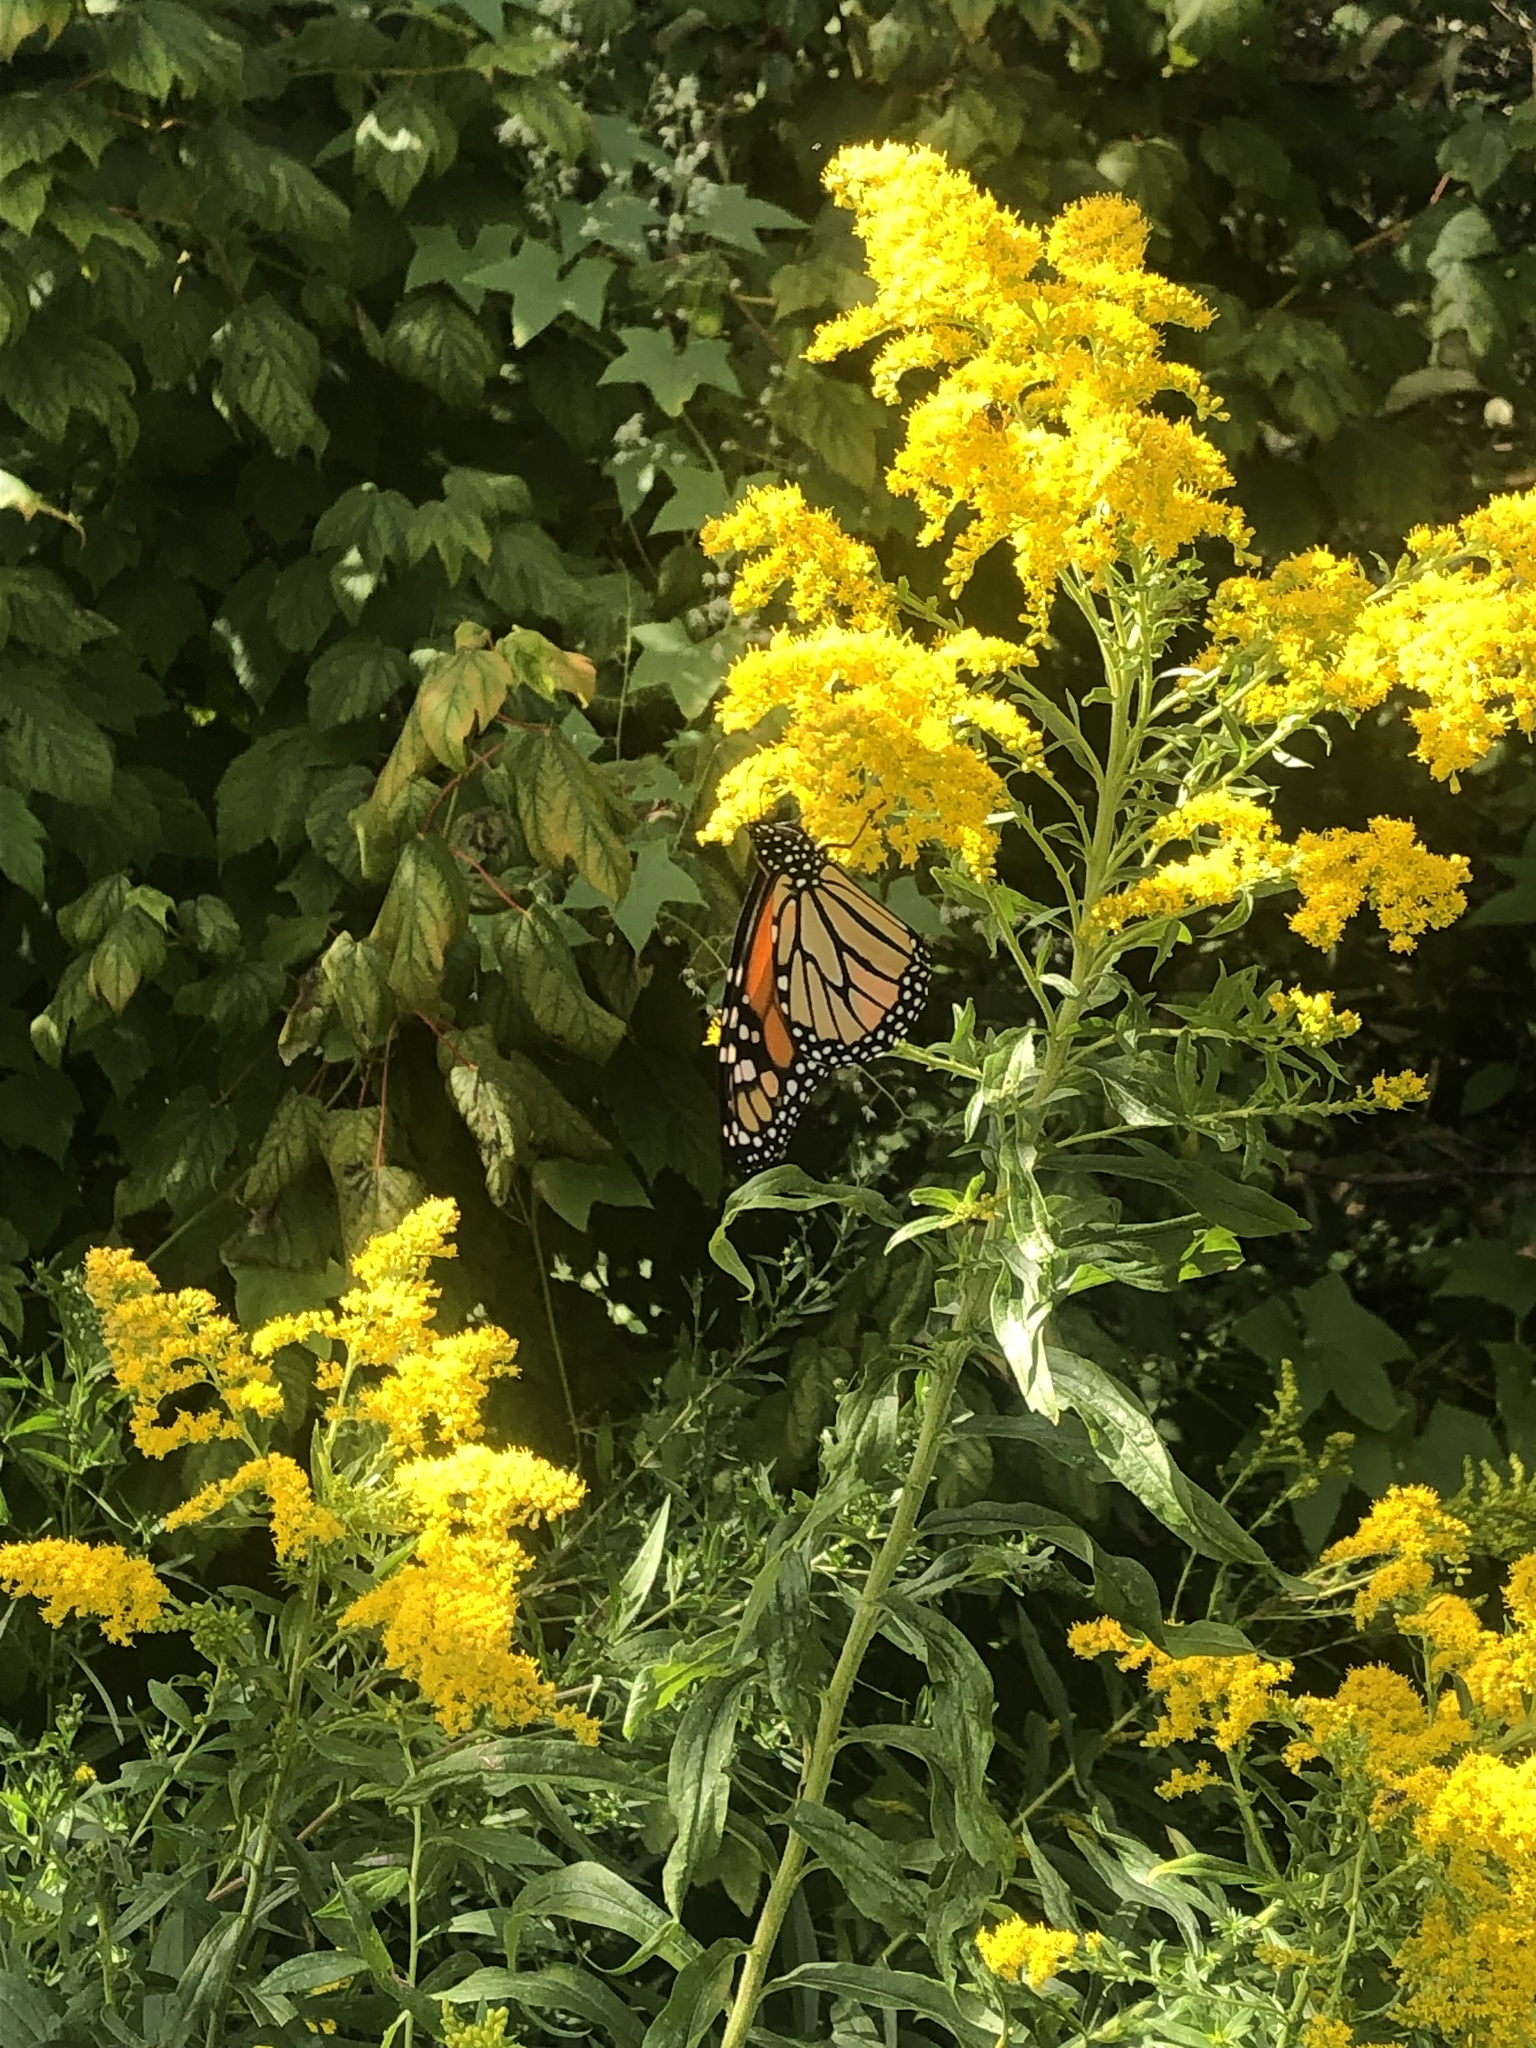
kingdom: Animalia
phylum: Arthropoda
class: Insecta
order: Lepidoptera
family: Nymphalidae
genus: Danaus
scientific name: Danaus plexippus
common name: Monarch
